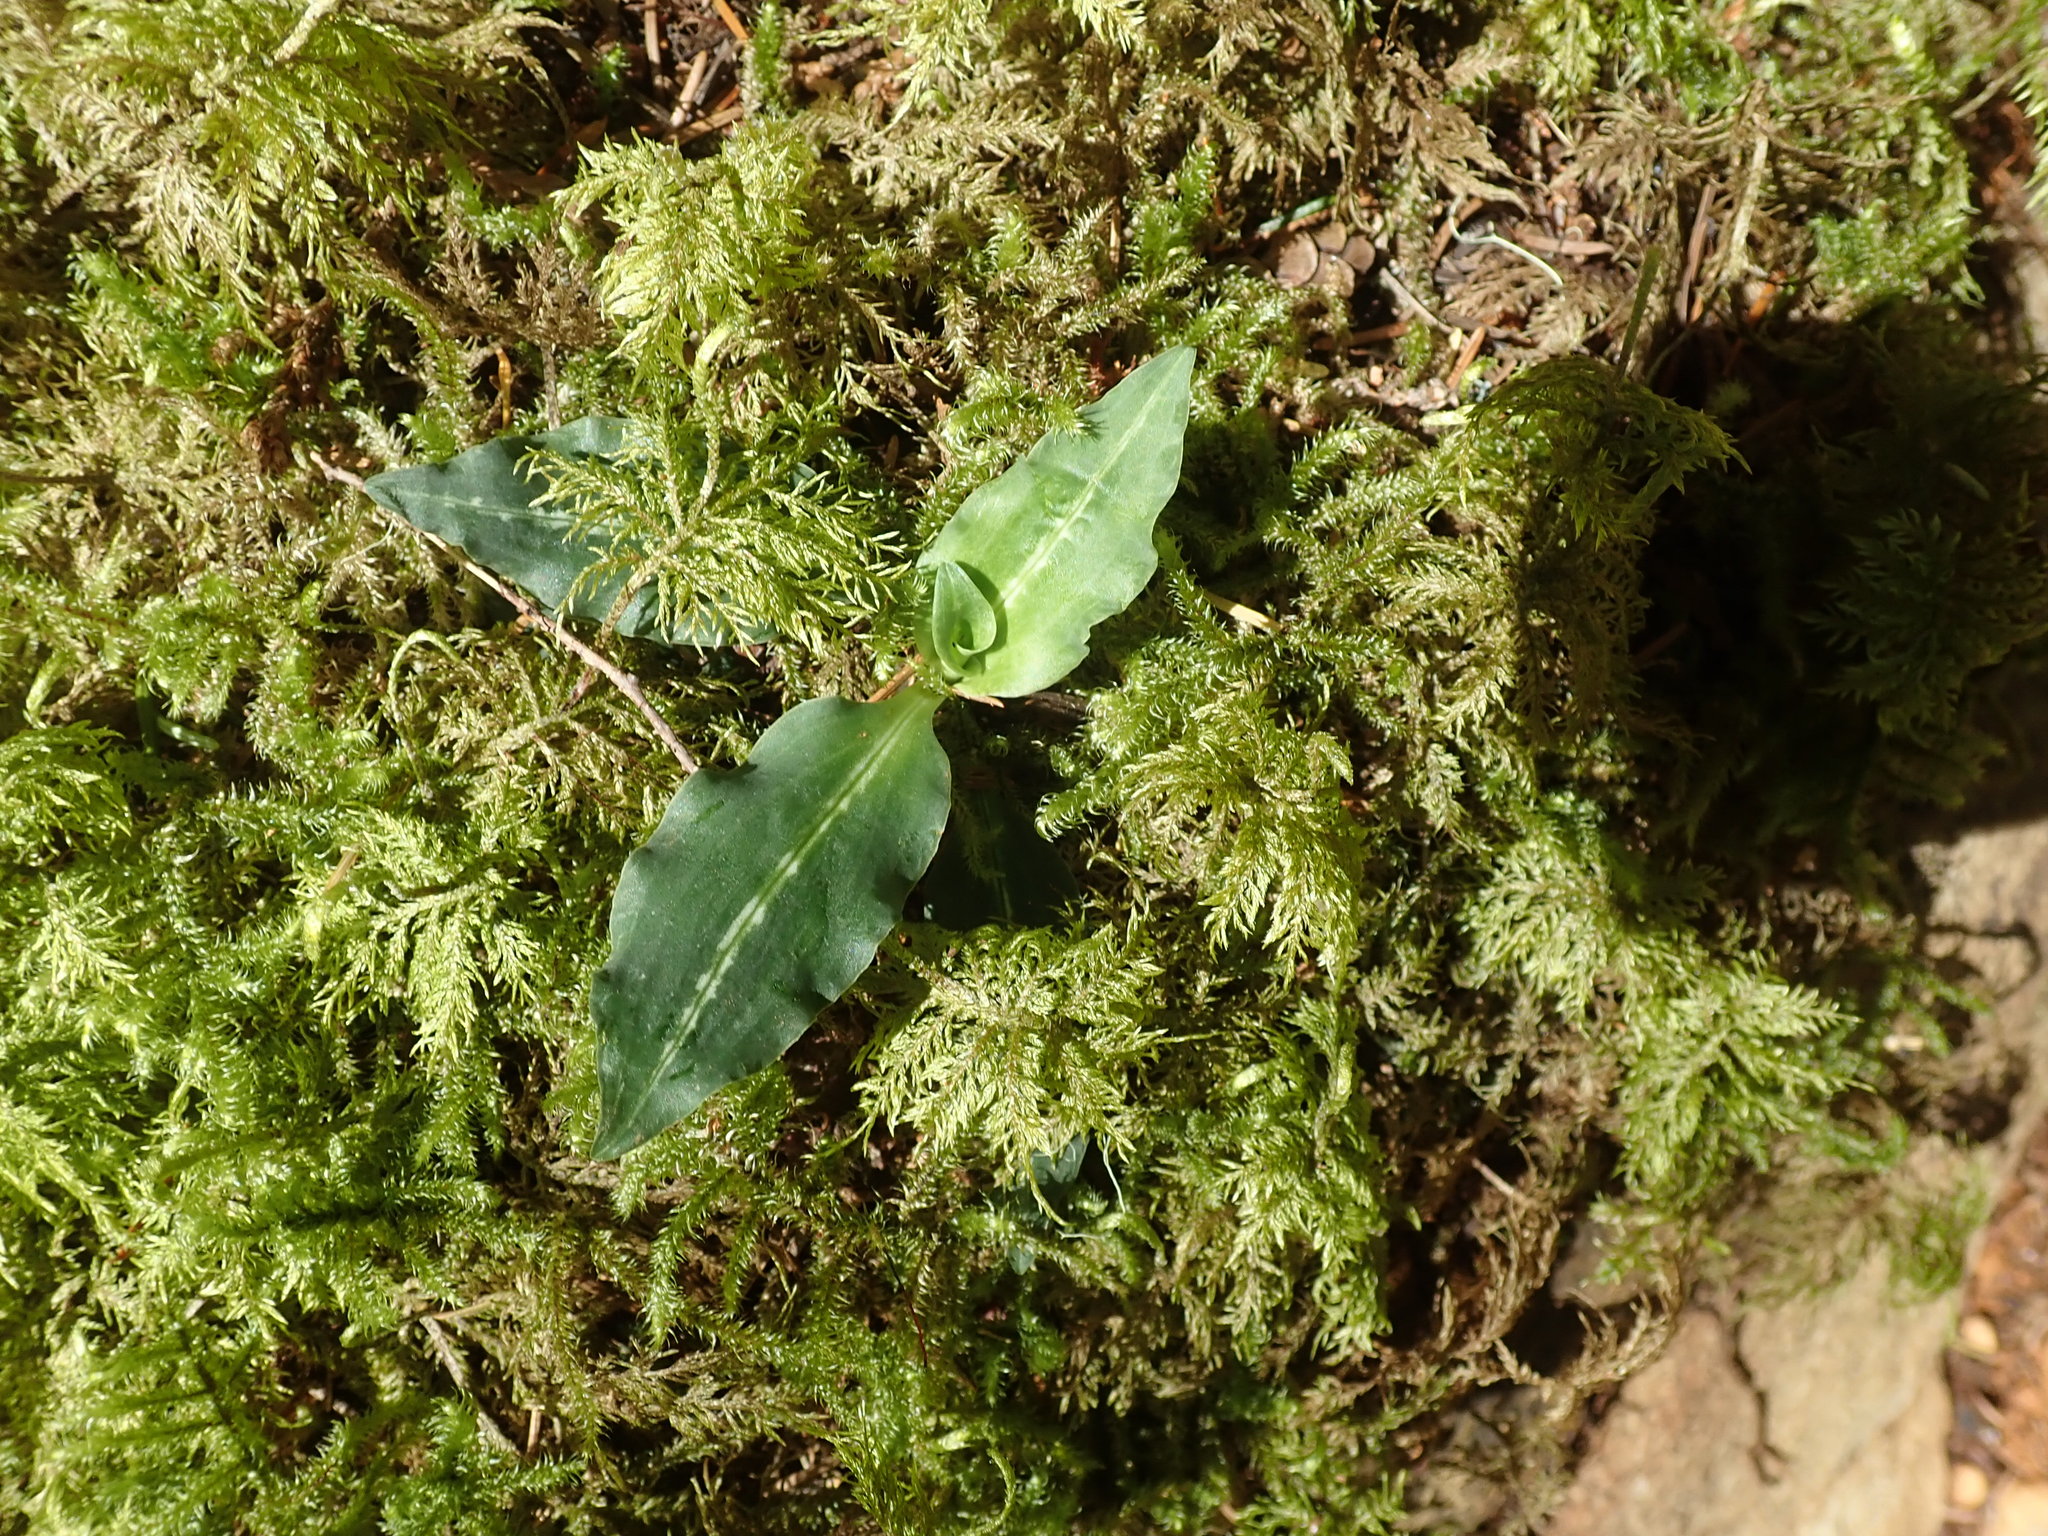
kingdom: Plantae
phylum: Tracheophyta
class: Liliopsida
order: Asparagales
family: Orchidaceae
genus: Goodyera
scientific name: Goodyera oblongifolia
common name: Giant rattlesnake-plantain
